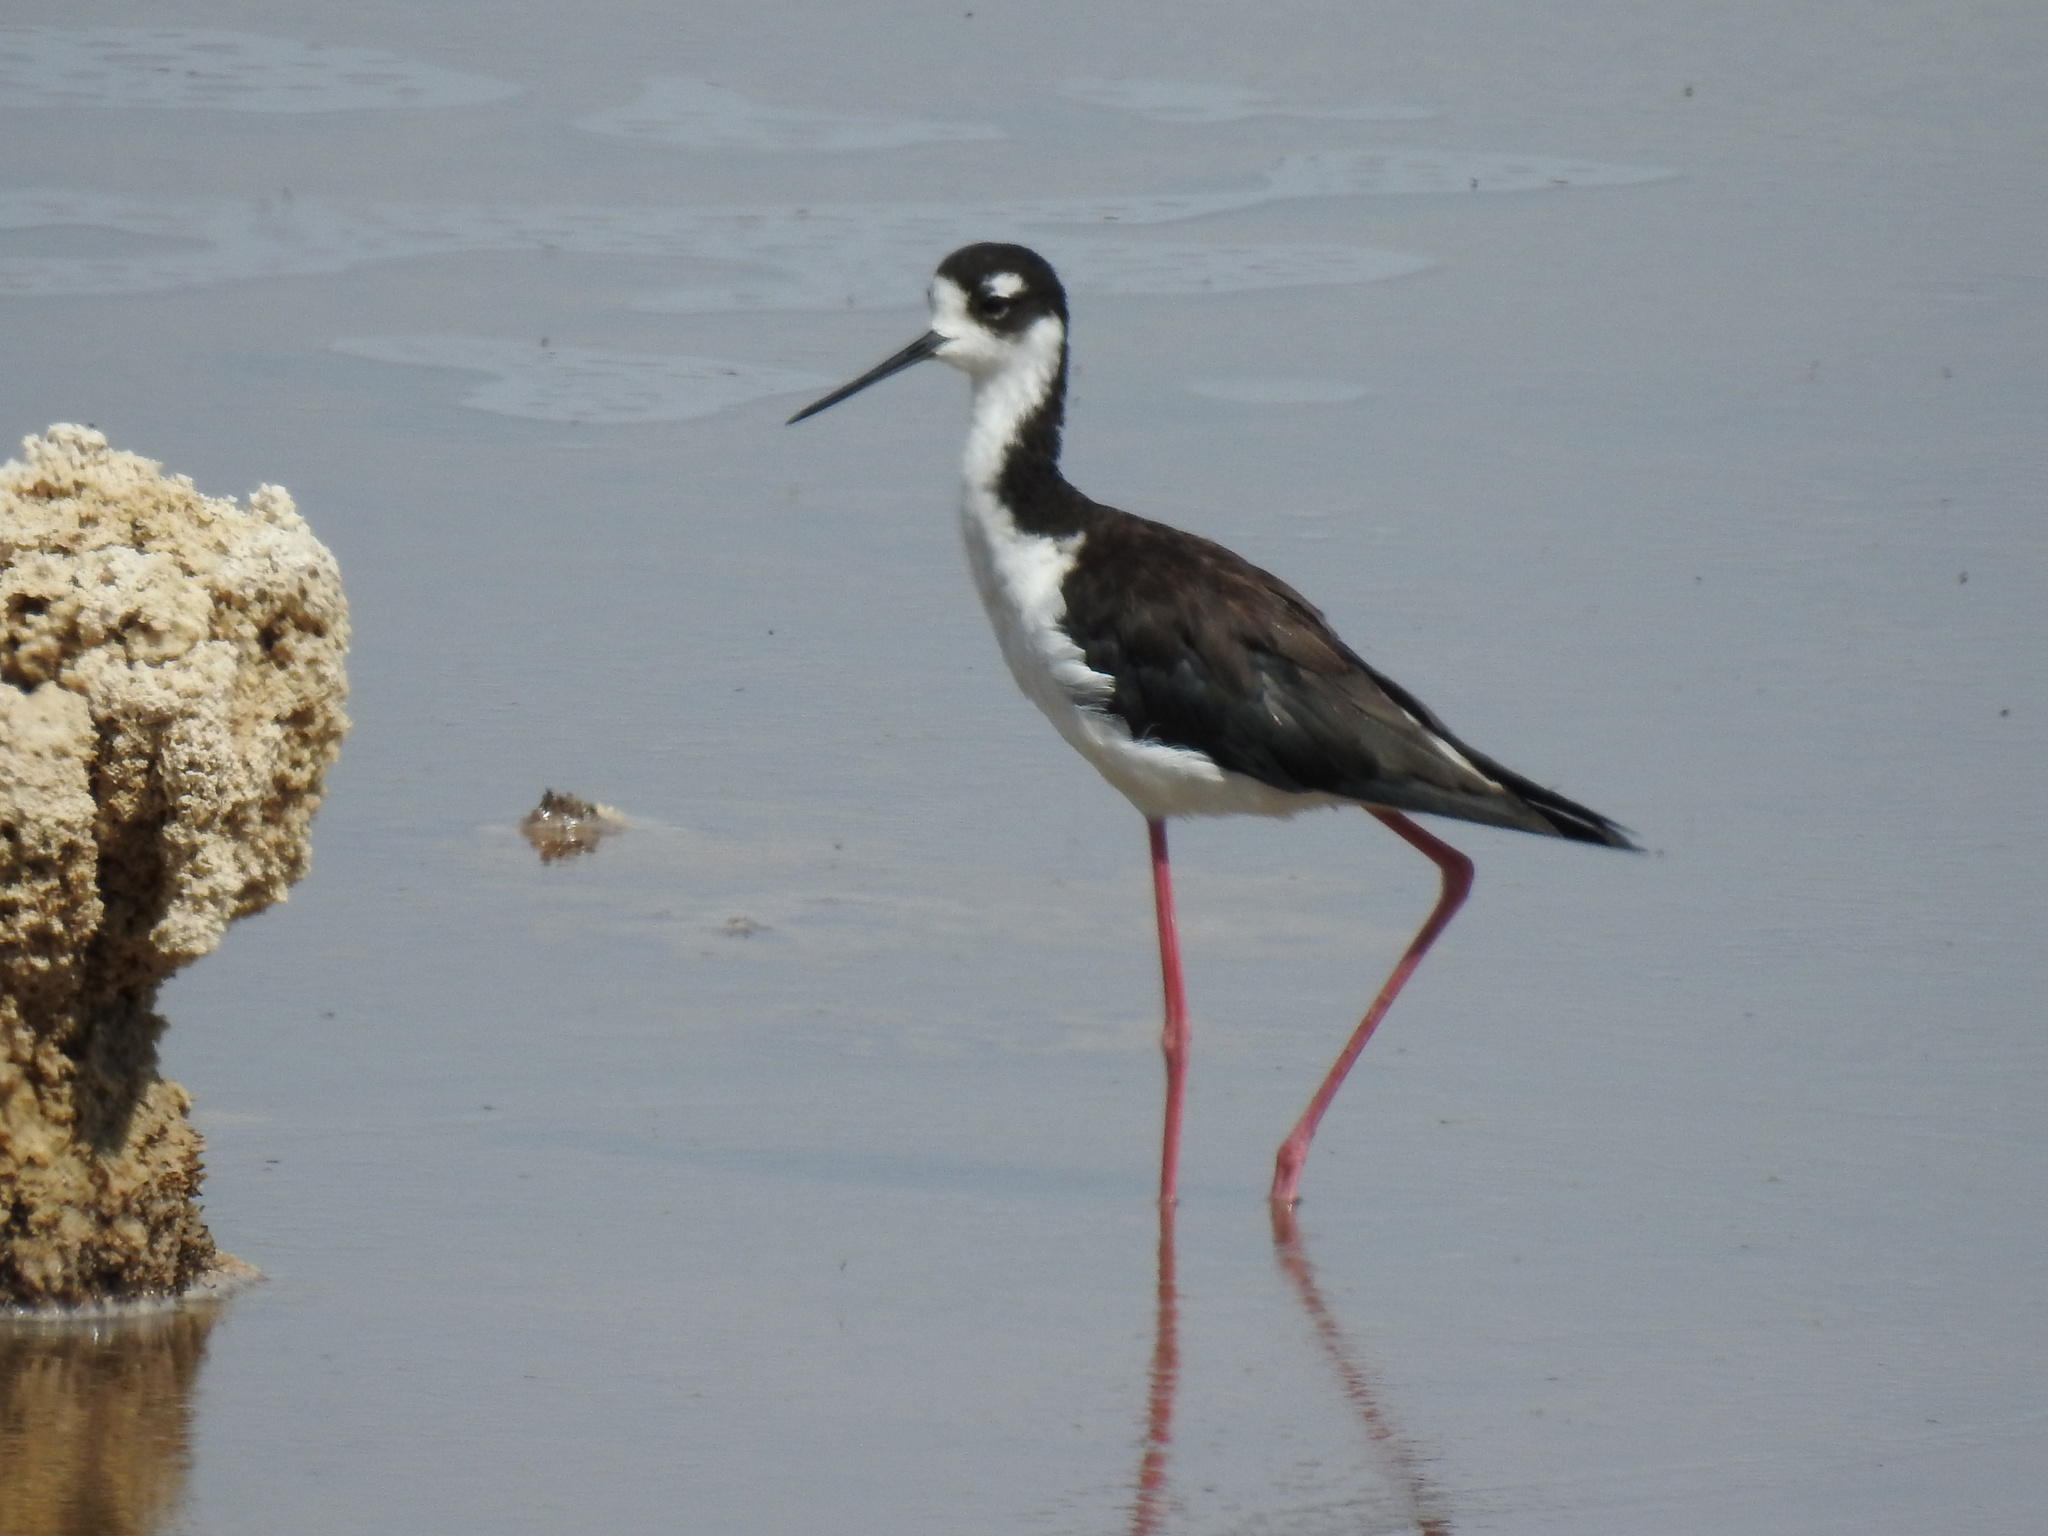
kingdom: Animalia
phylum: Chordata
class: Aves
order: Charadriiformes
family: Recurvirostridae
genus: Himantopus
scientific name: Himantopus mexicanus
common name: Black-necked stilt
